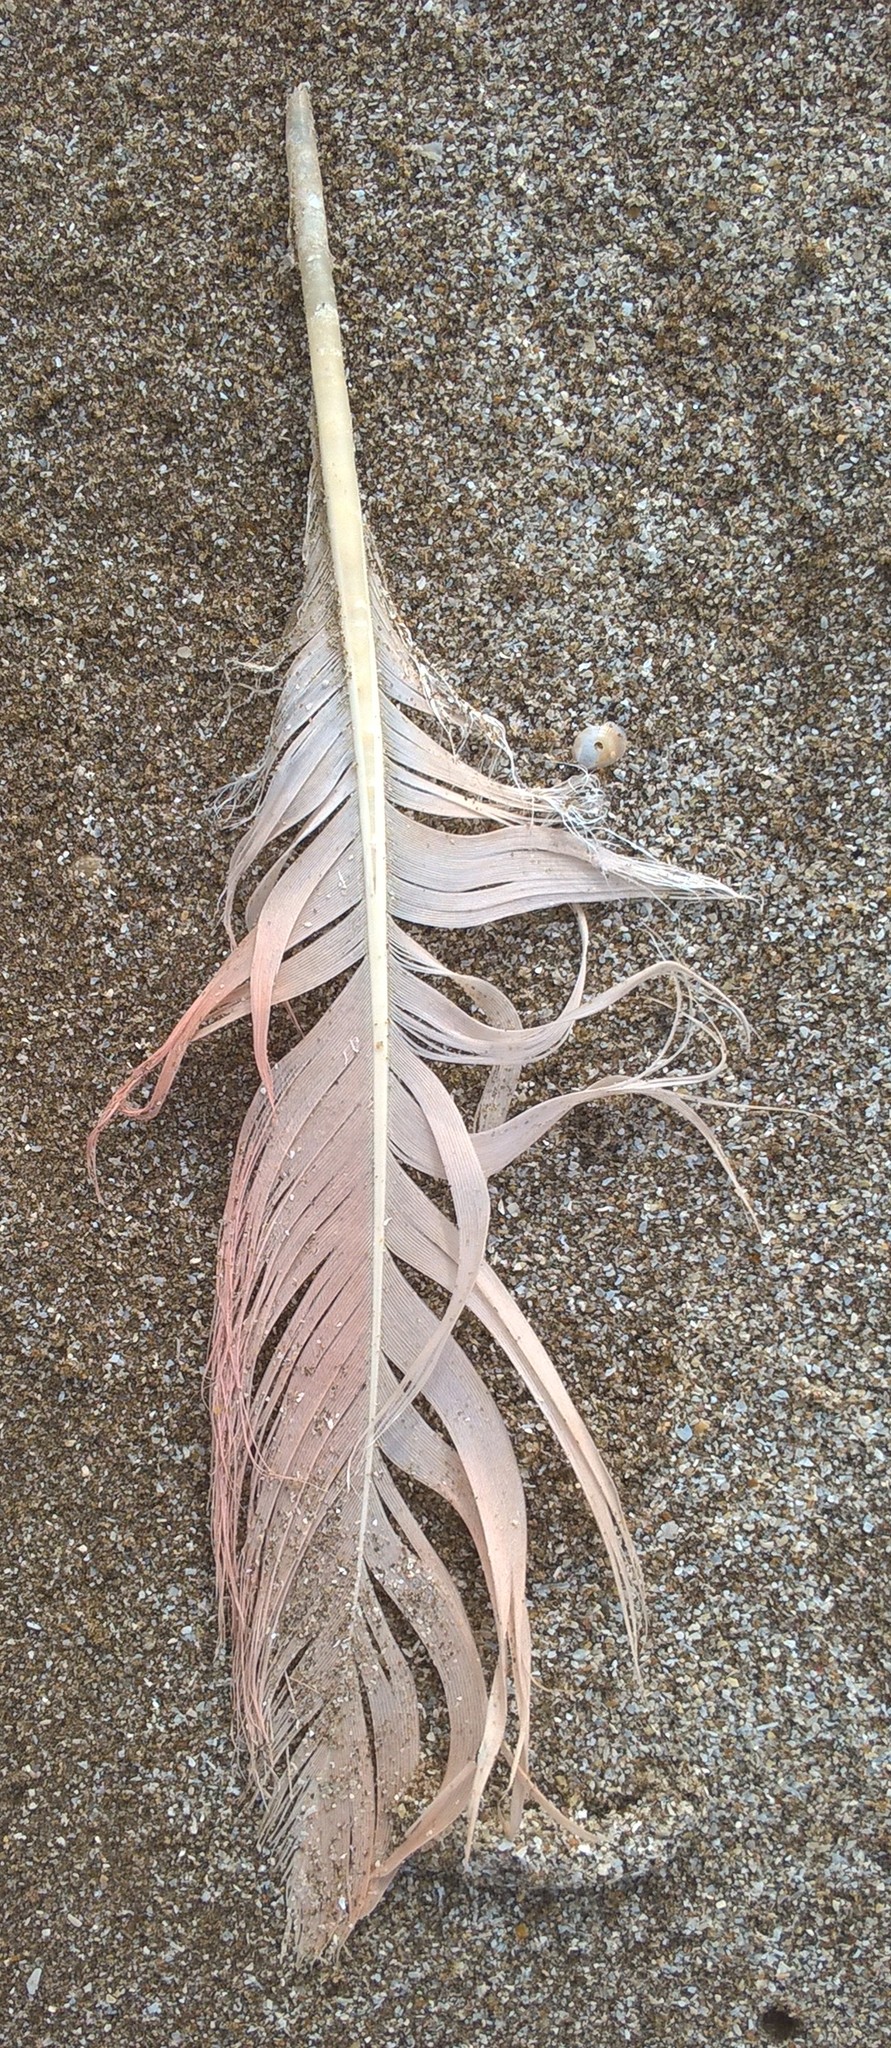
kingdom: Animalia
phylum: Chordata
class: Aves
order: Phoenicopteriformes
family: Phoenicopteridae
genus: Phoenicopterus
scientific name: Phoenicopterus chilensis
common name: Chilean flamingo
